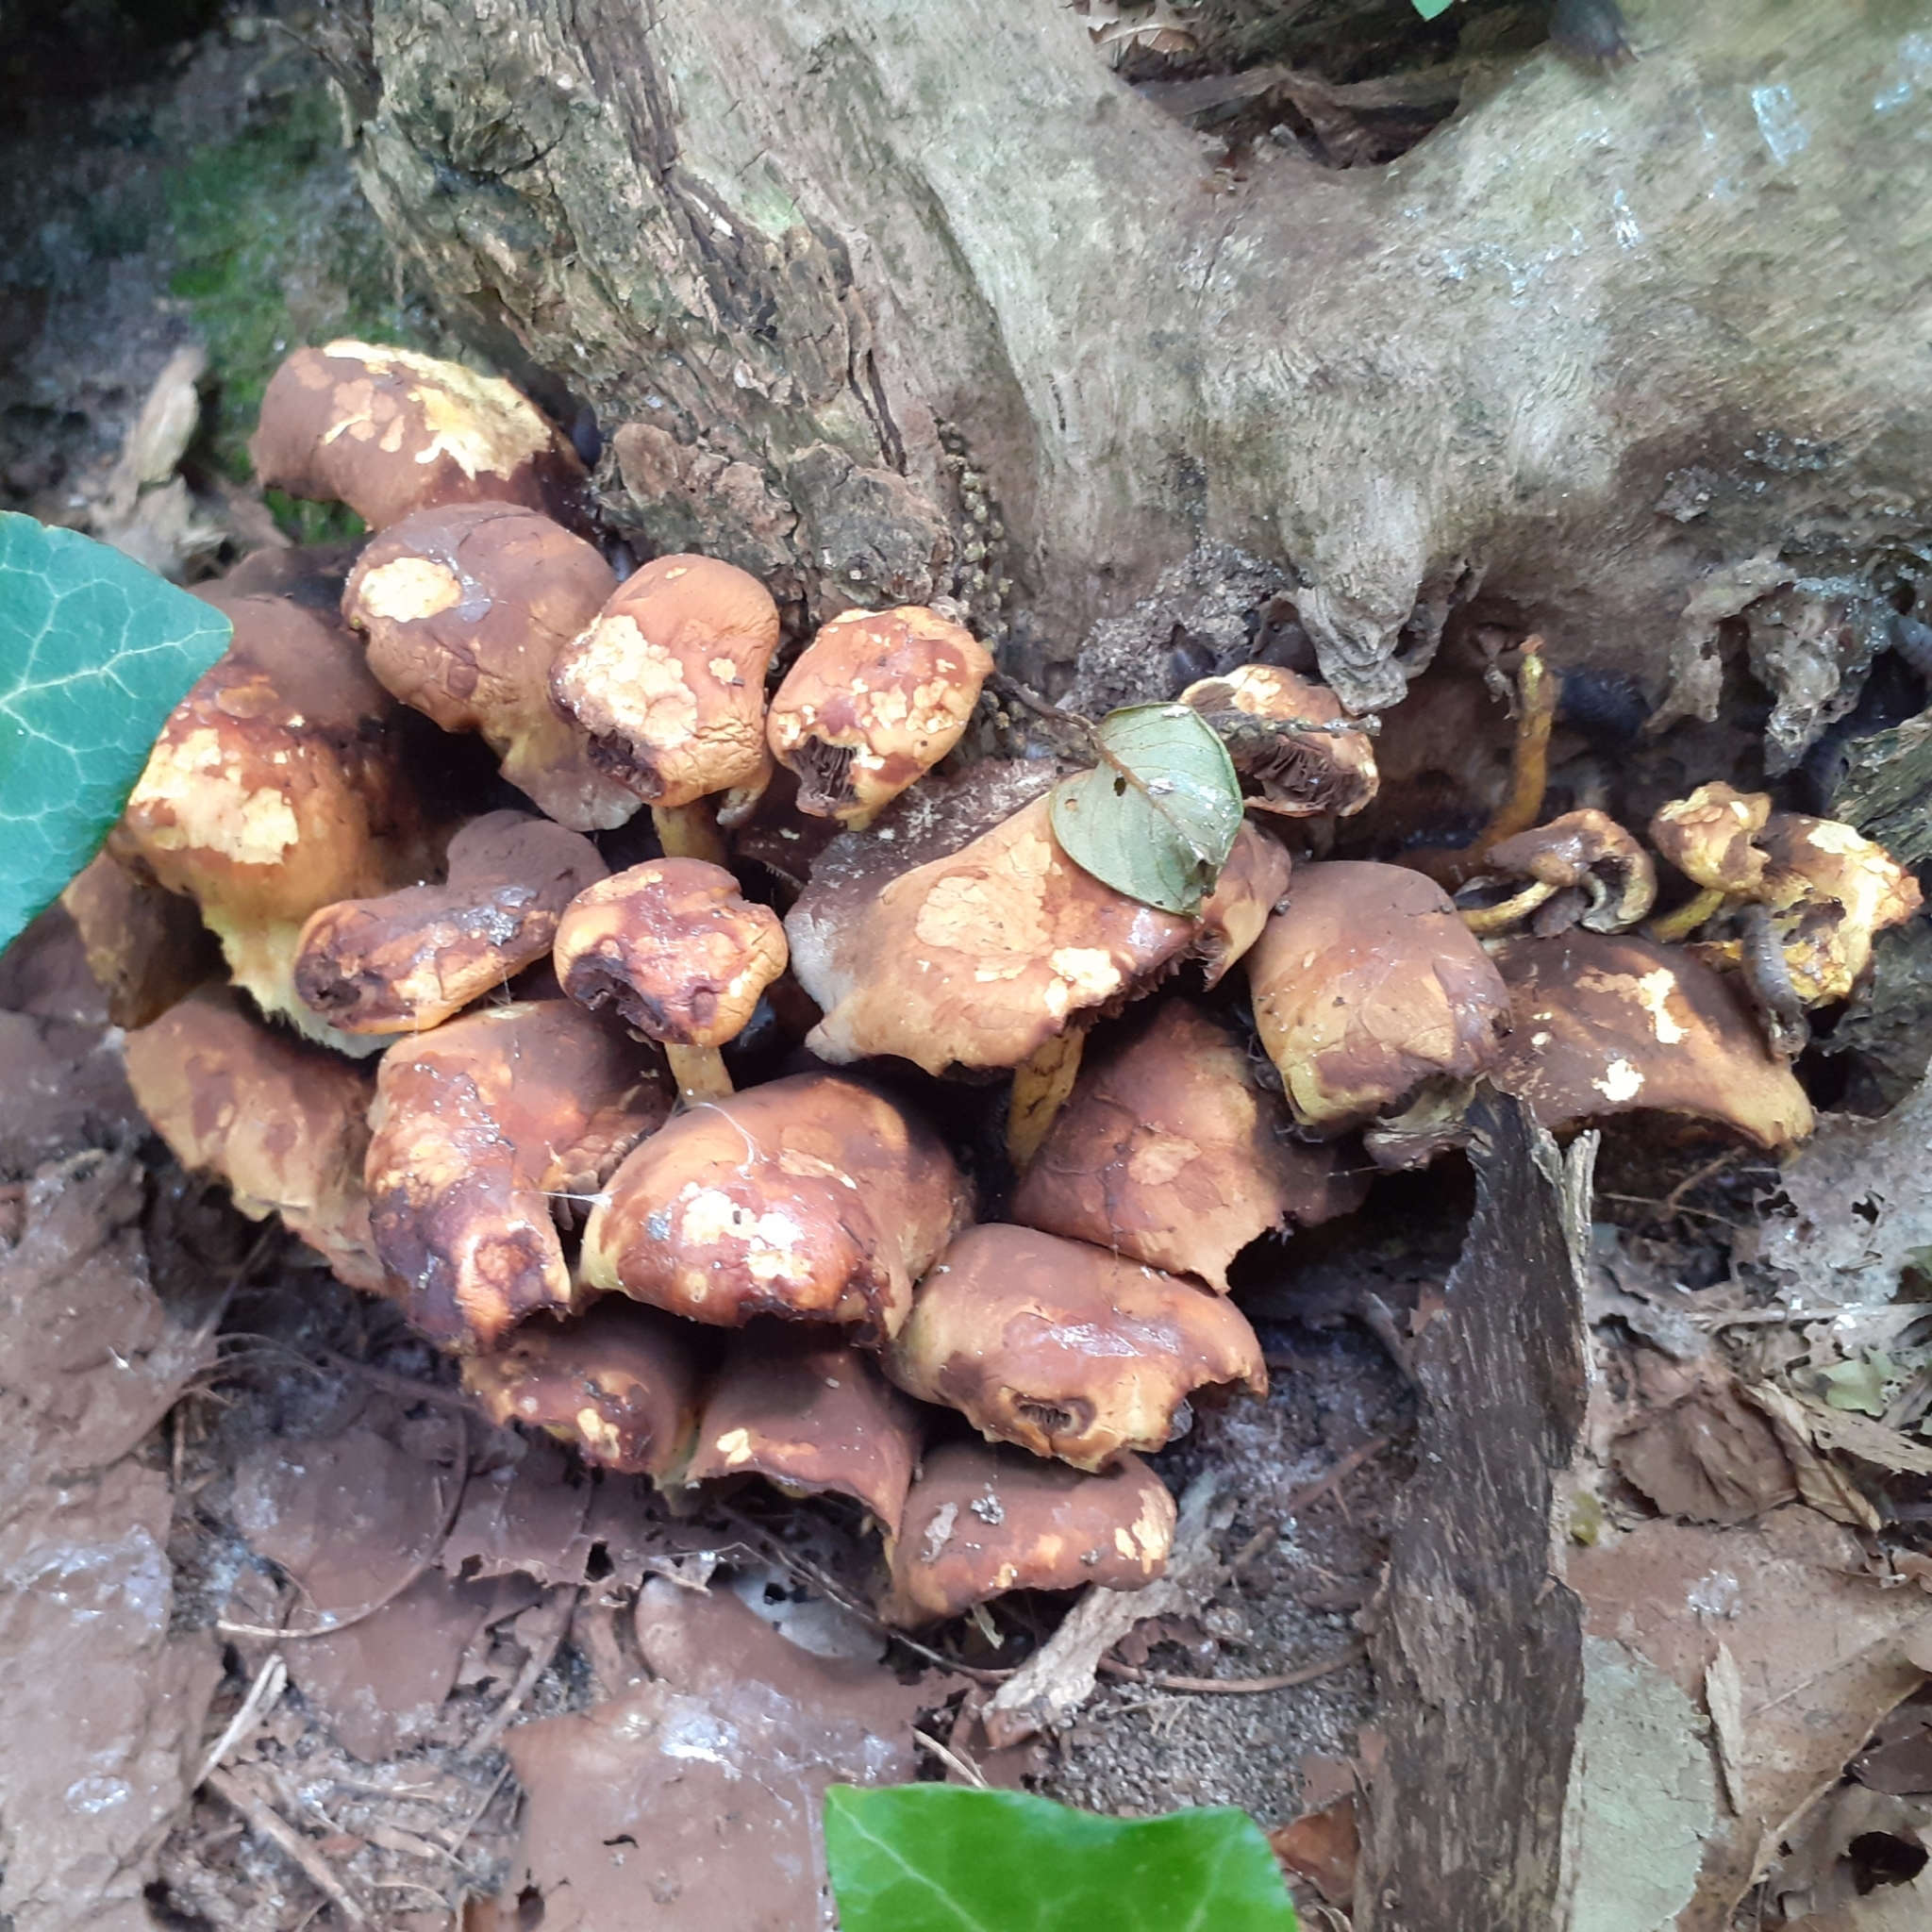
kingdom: Fungi
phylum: Basidiomycota
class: Agaricomycetes
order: Agaricales
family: Strophariaceae
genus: Hypholoma
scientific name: Hypholoma fasciculare
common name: Sulphur tuft
